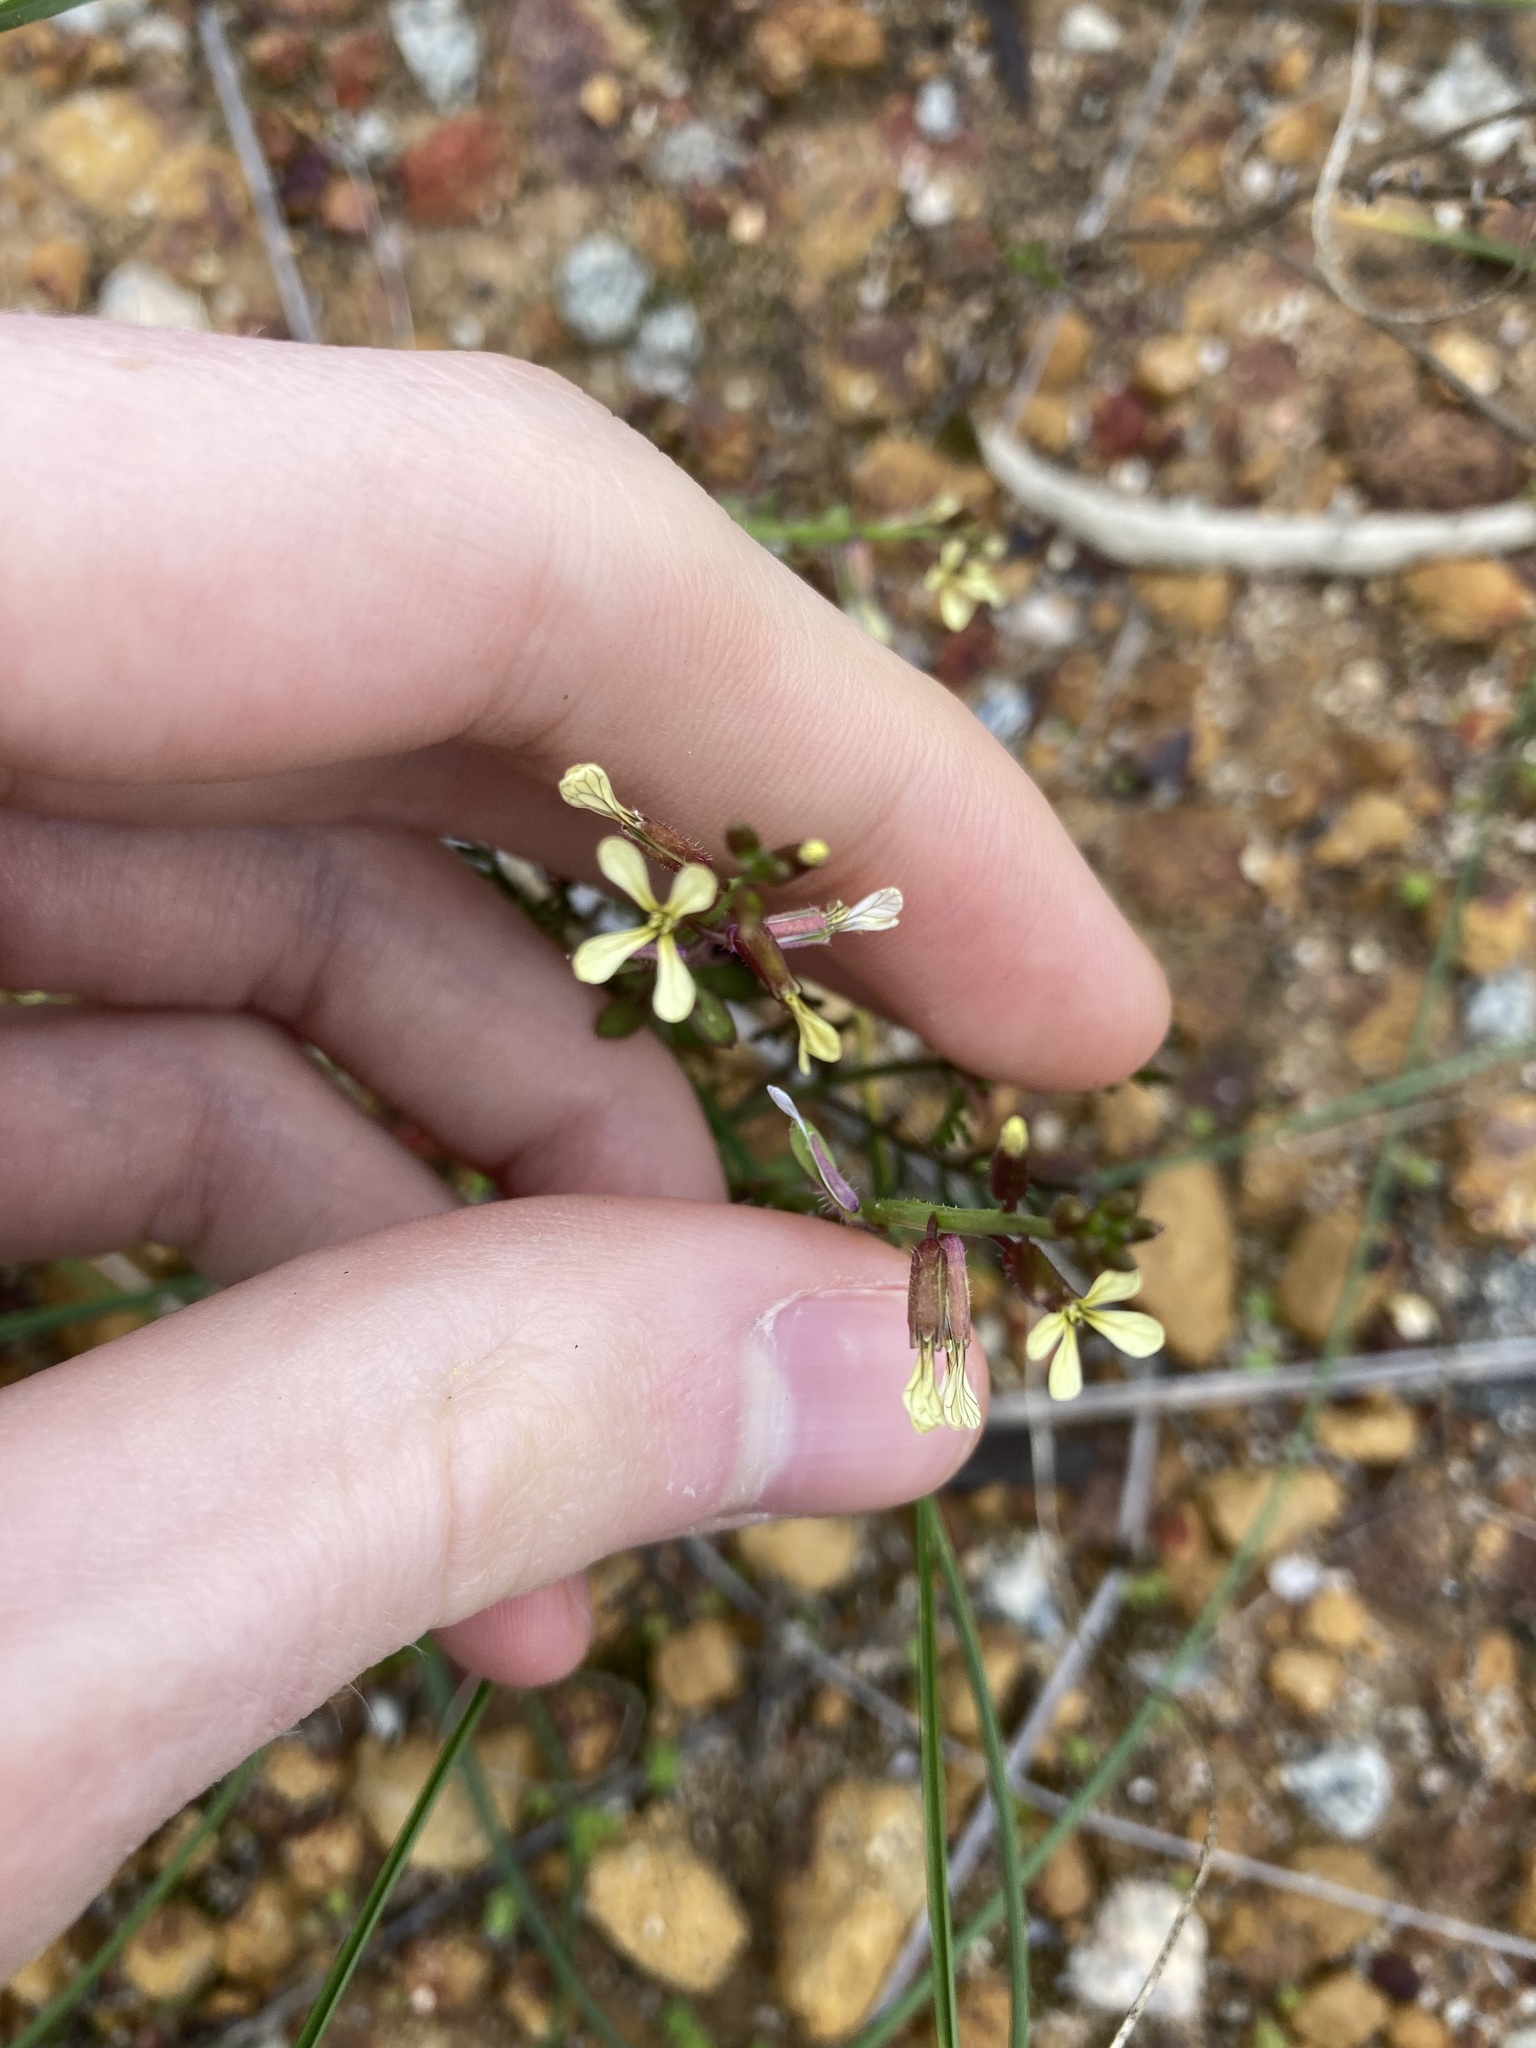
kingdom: Plantae
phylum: Tracheophyta
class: Magnoliopsida
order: Brassicales
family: Brassicaceae
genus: Carrichtera
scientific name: Carrichtera annua
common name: Cress rocket
